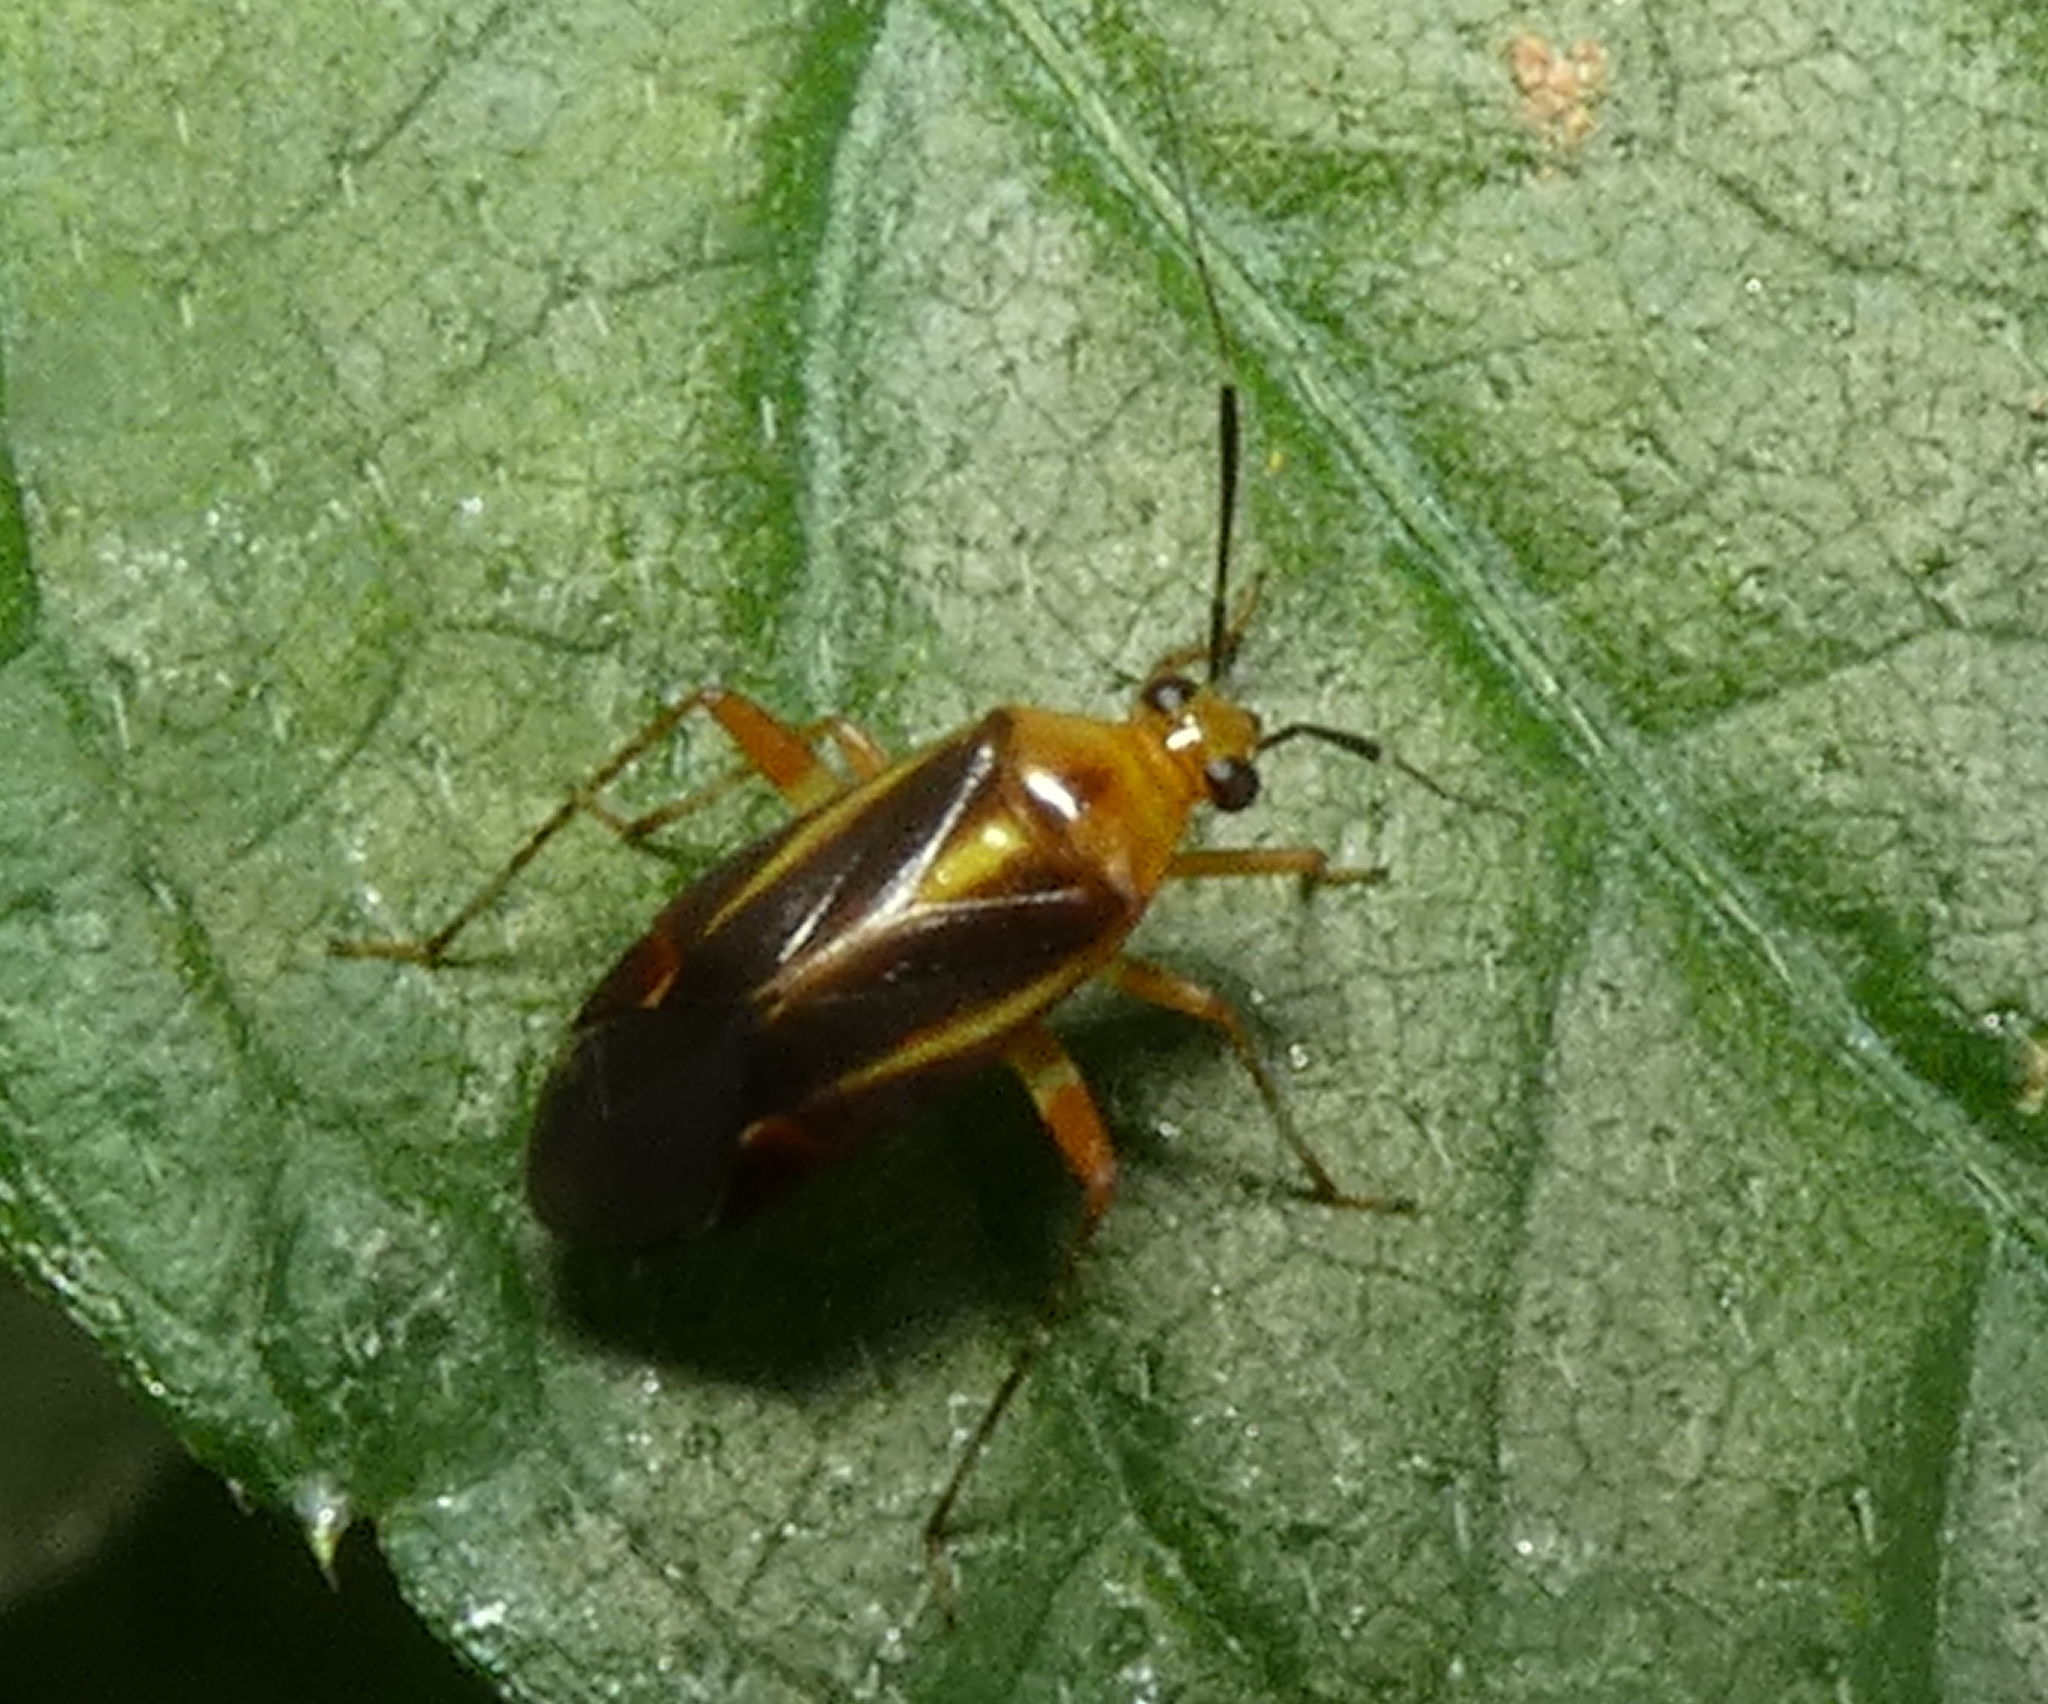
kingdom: Animalia
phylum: Arthropoda
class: Insecta
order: Hemiptera
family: Miridae
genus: Horciasinus
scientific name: Horciasinus signoreti
